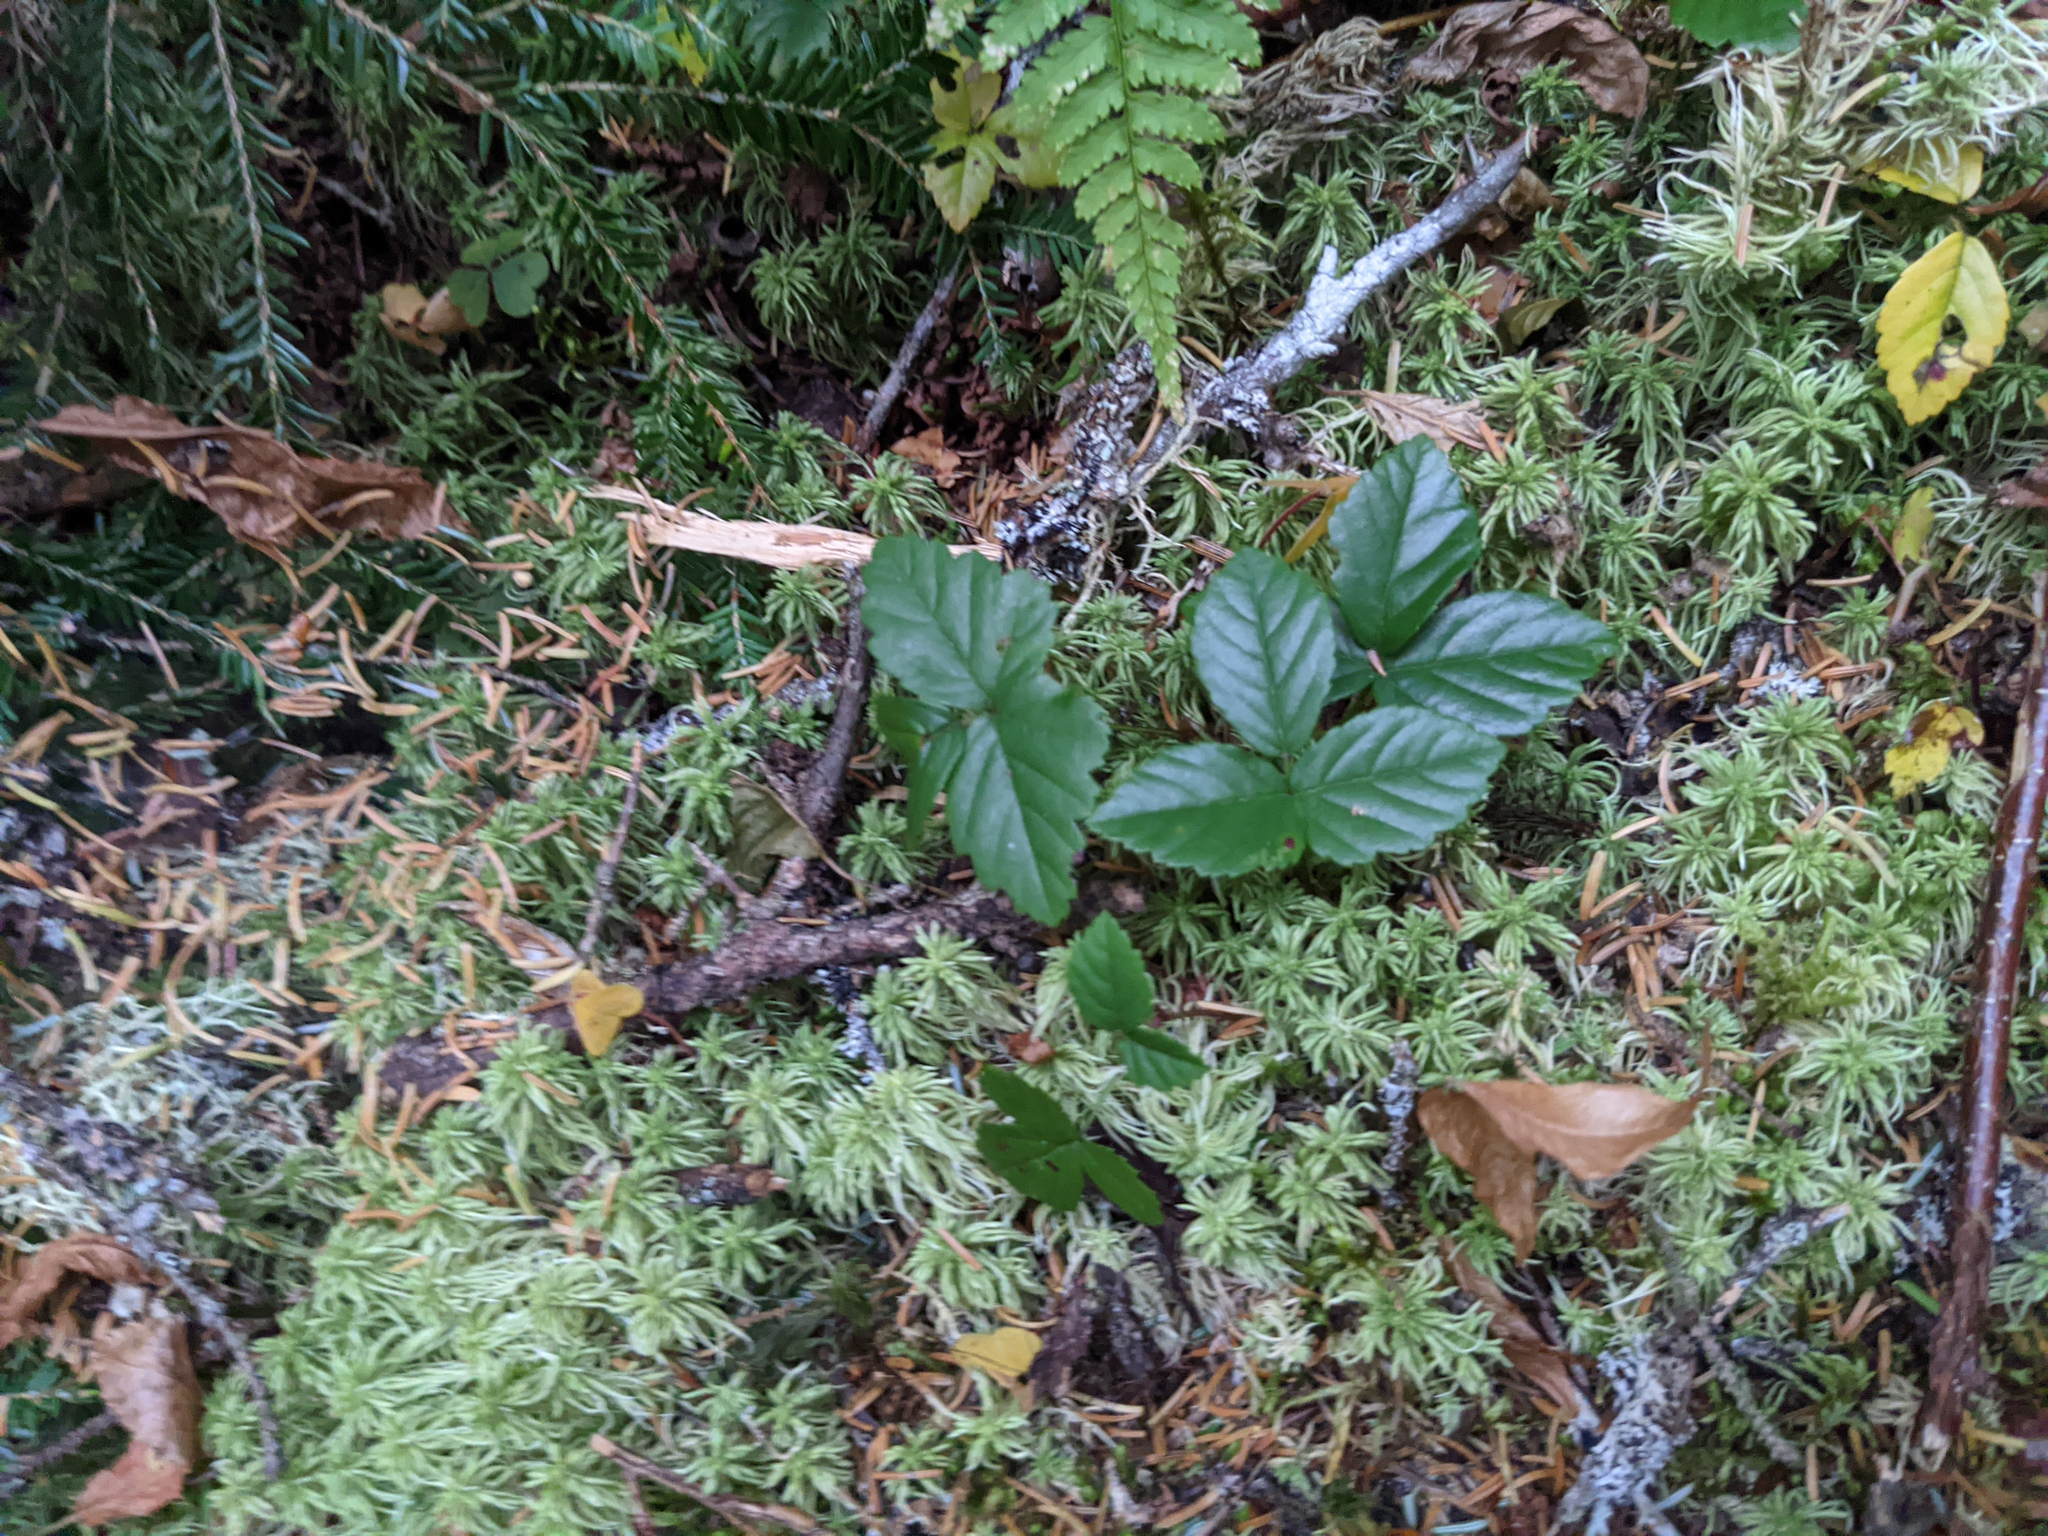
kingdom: Plantae
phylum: Tracheophyta
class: Magnoliopsida
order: Rosales
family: Rosaceae
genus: Rubus
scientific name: Rubus hispidus
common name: Running blackberry
